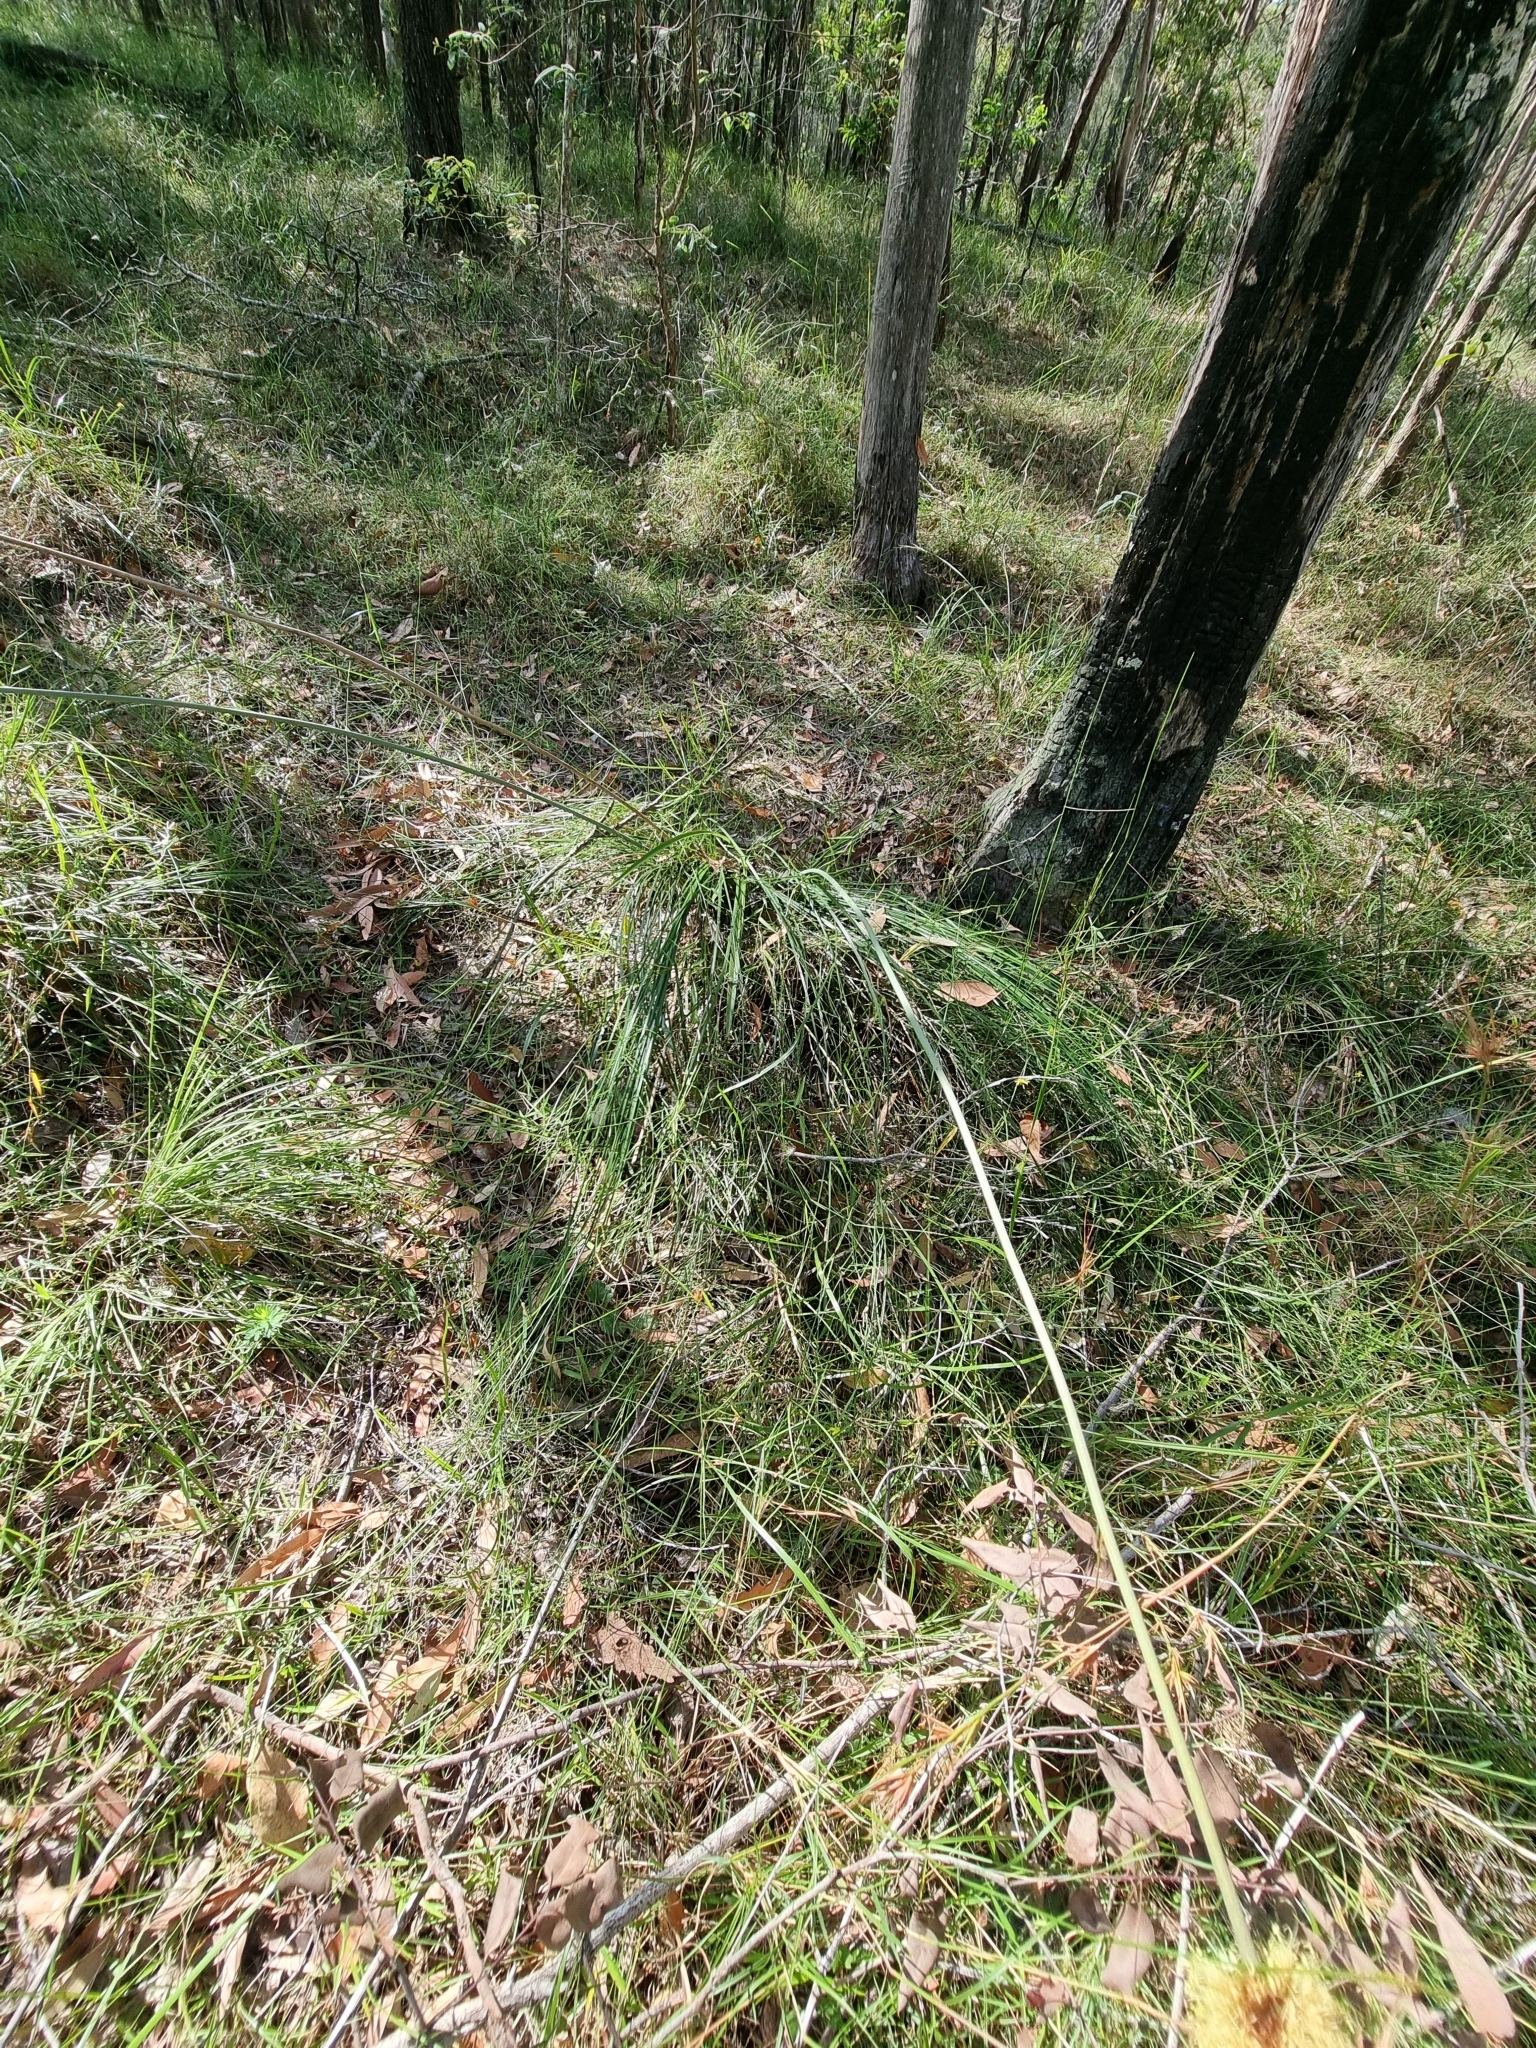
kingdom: Plantae
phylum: Tracheophyta
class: Liliopsida
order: Asparagales
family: Asphodelaceae
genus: Xanthorrhoea
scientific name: Xanthorrhoea macronema
